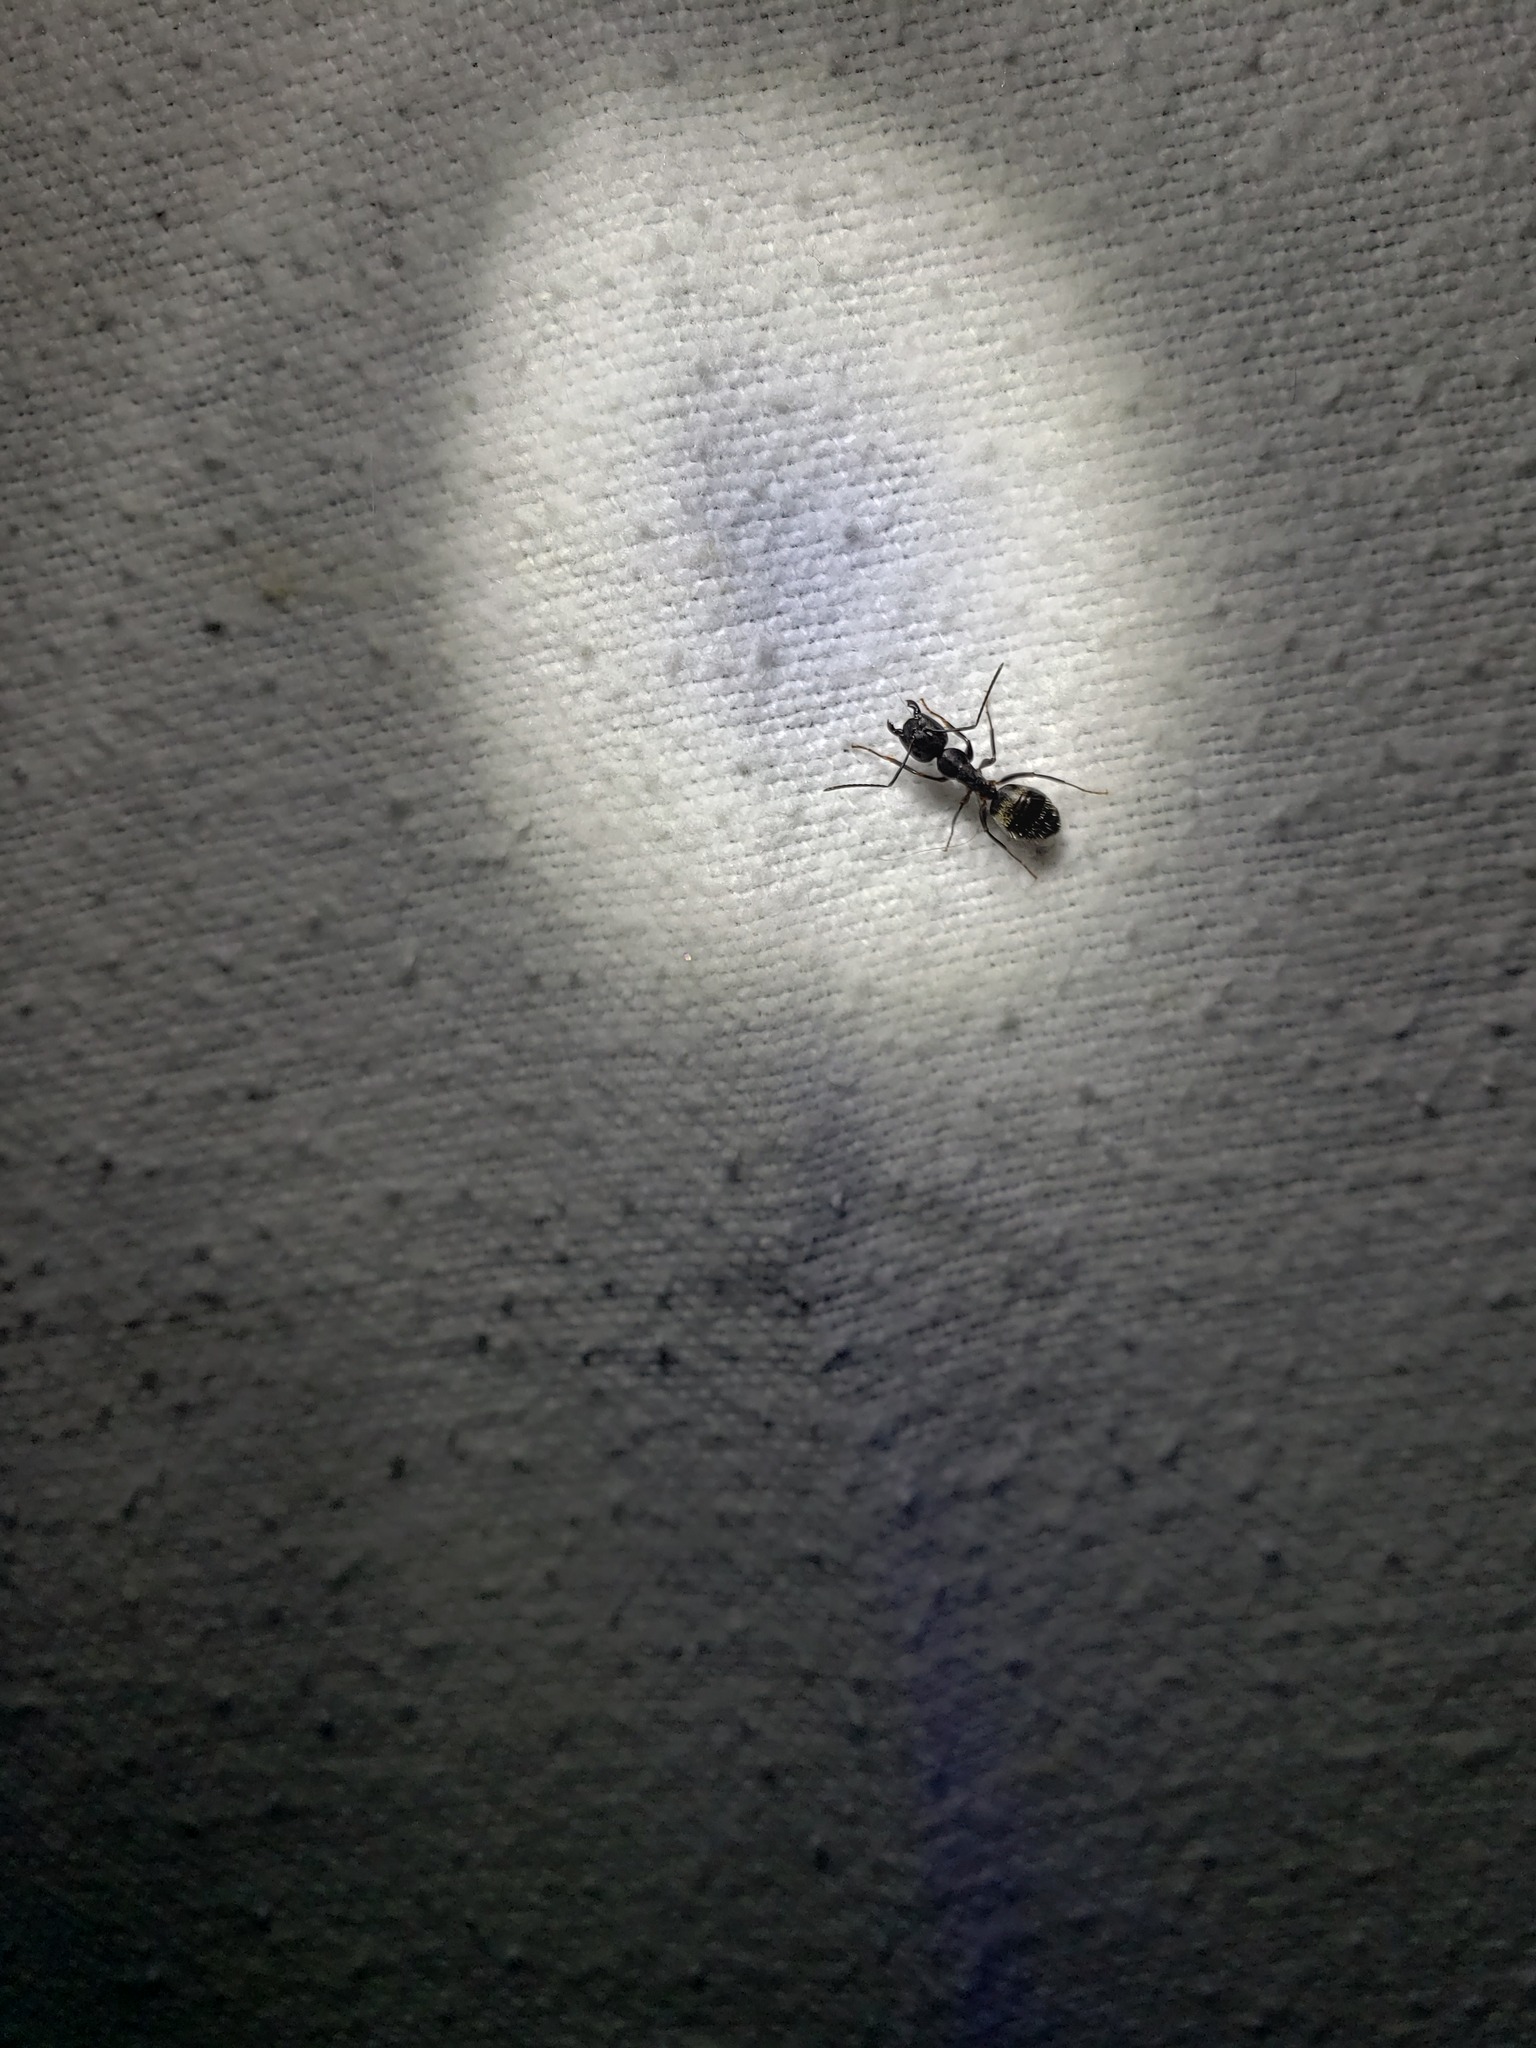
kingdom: Animalia
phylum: Arthropoda
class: Insecta
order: Hymenoptera
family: Formicidae
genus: Camponotus
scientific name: Camponotus pennsylvanicus
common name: Black carpenter ant
